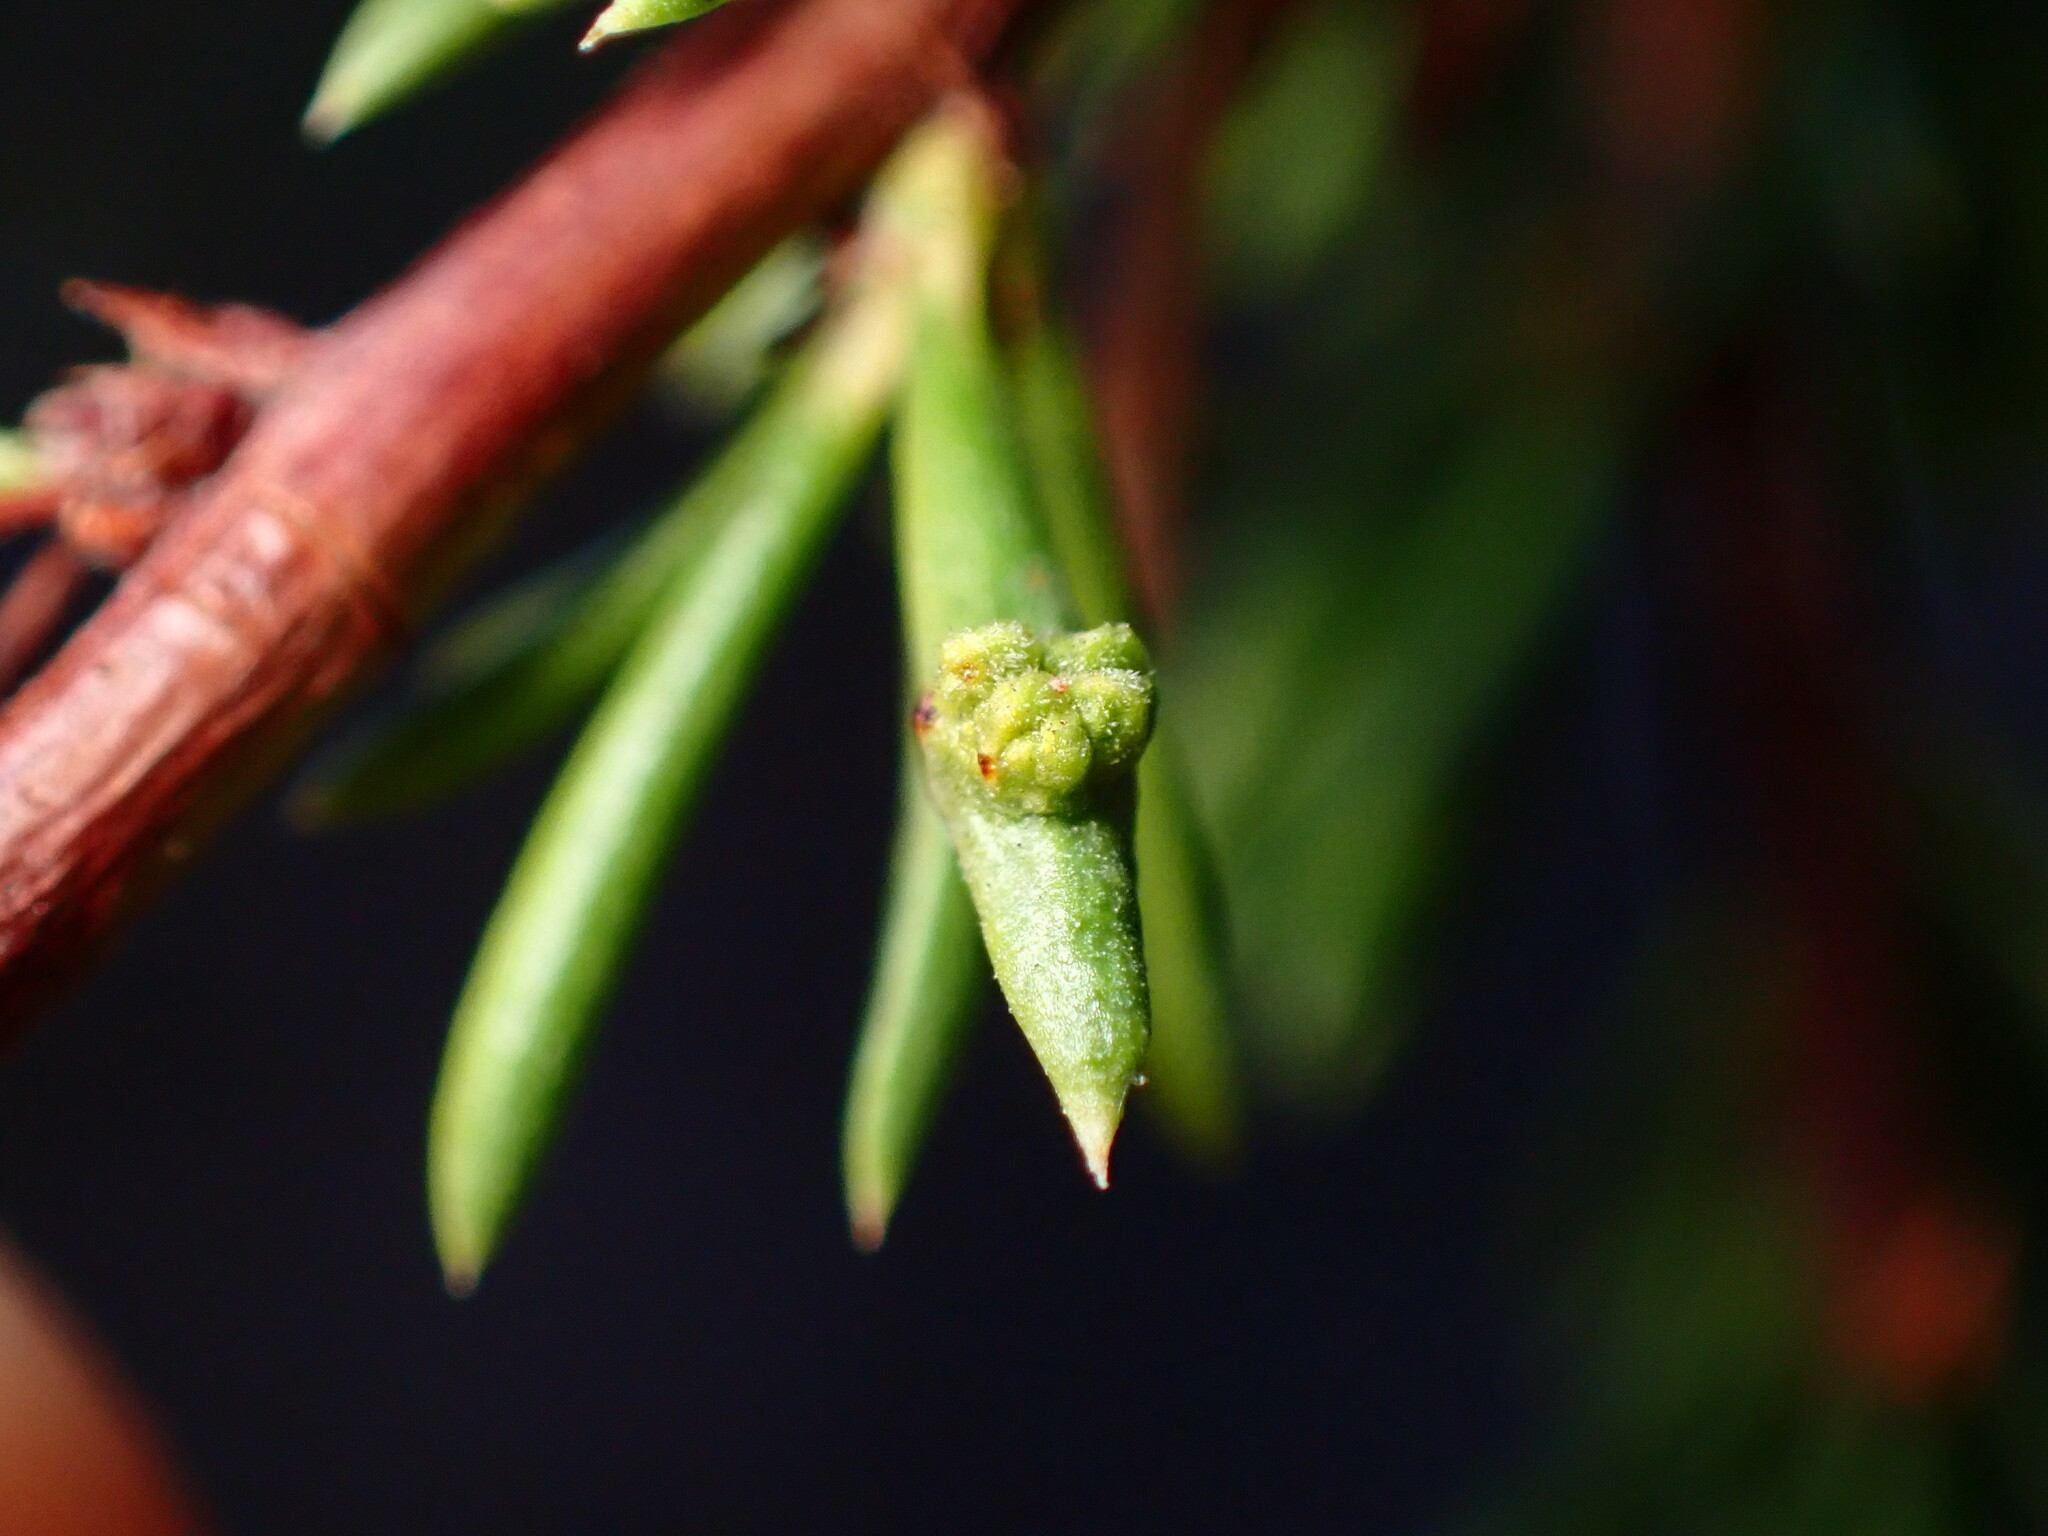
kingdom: Animalia
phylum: Arthropoda
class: Arachnida
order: Trombidiformes
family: Eriophyidae
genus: Eriophyes
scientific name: Eriophyes
